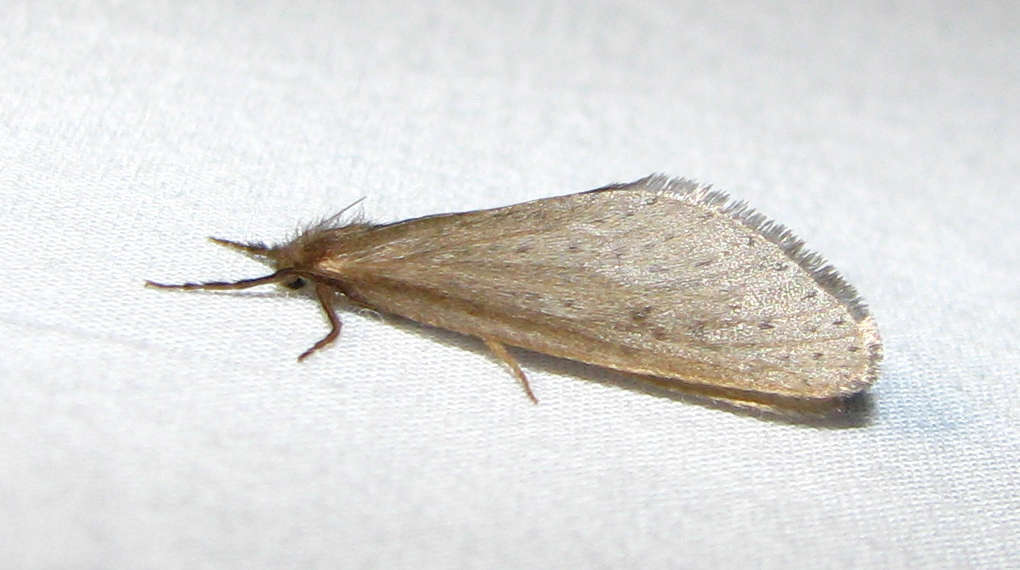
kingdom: Animalia
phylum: Arthropoda
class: Insecta
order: Lepidoptera
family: Hepialidae
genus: Fraus
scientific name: Fraus pteromela
